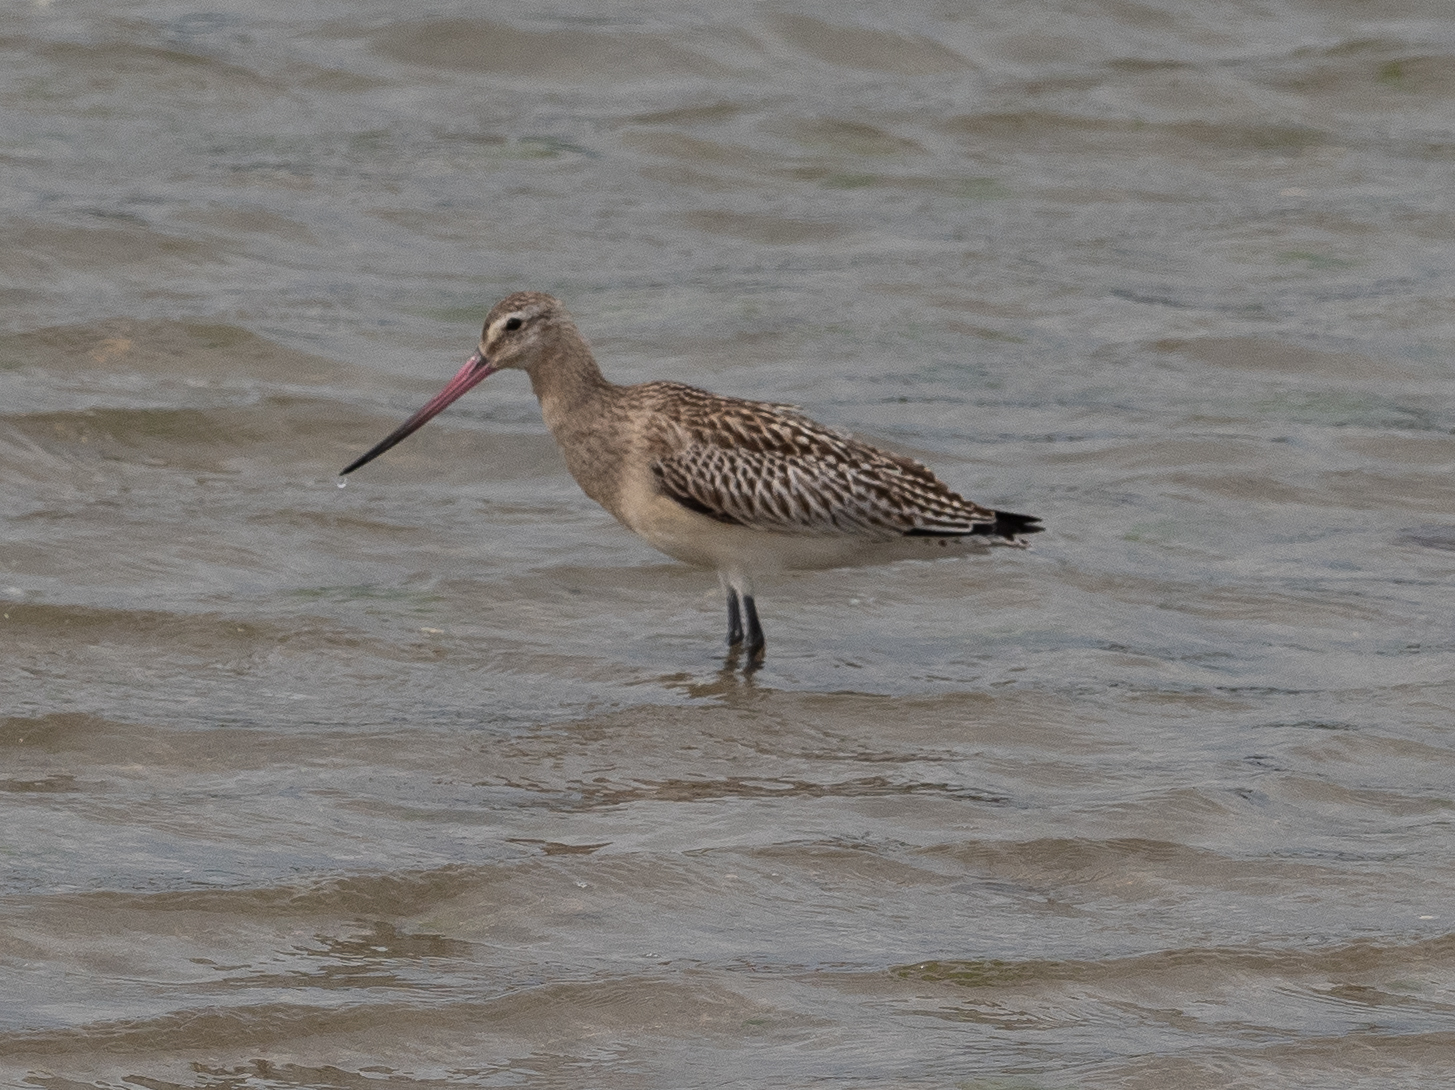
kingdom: Animalia
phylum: Chordata
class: Aves
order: Charadriiformes
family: Scolopacidae
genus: Limosa
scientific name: Limosa lapponica
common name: Bar-tailed godwit
